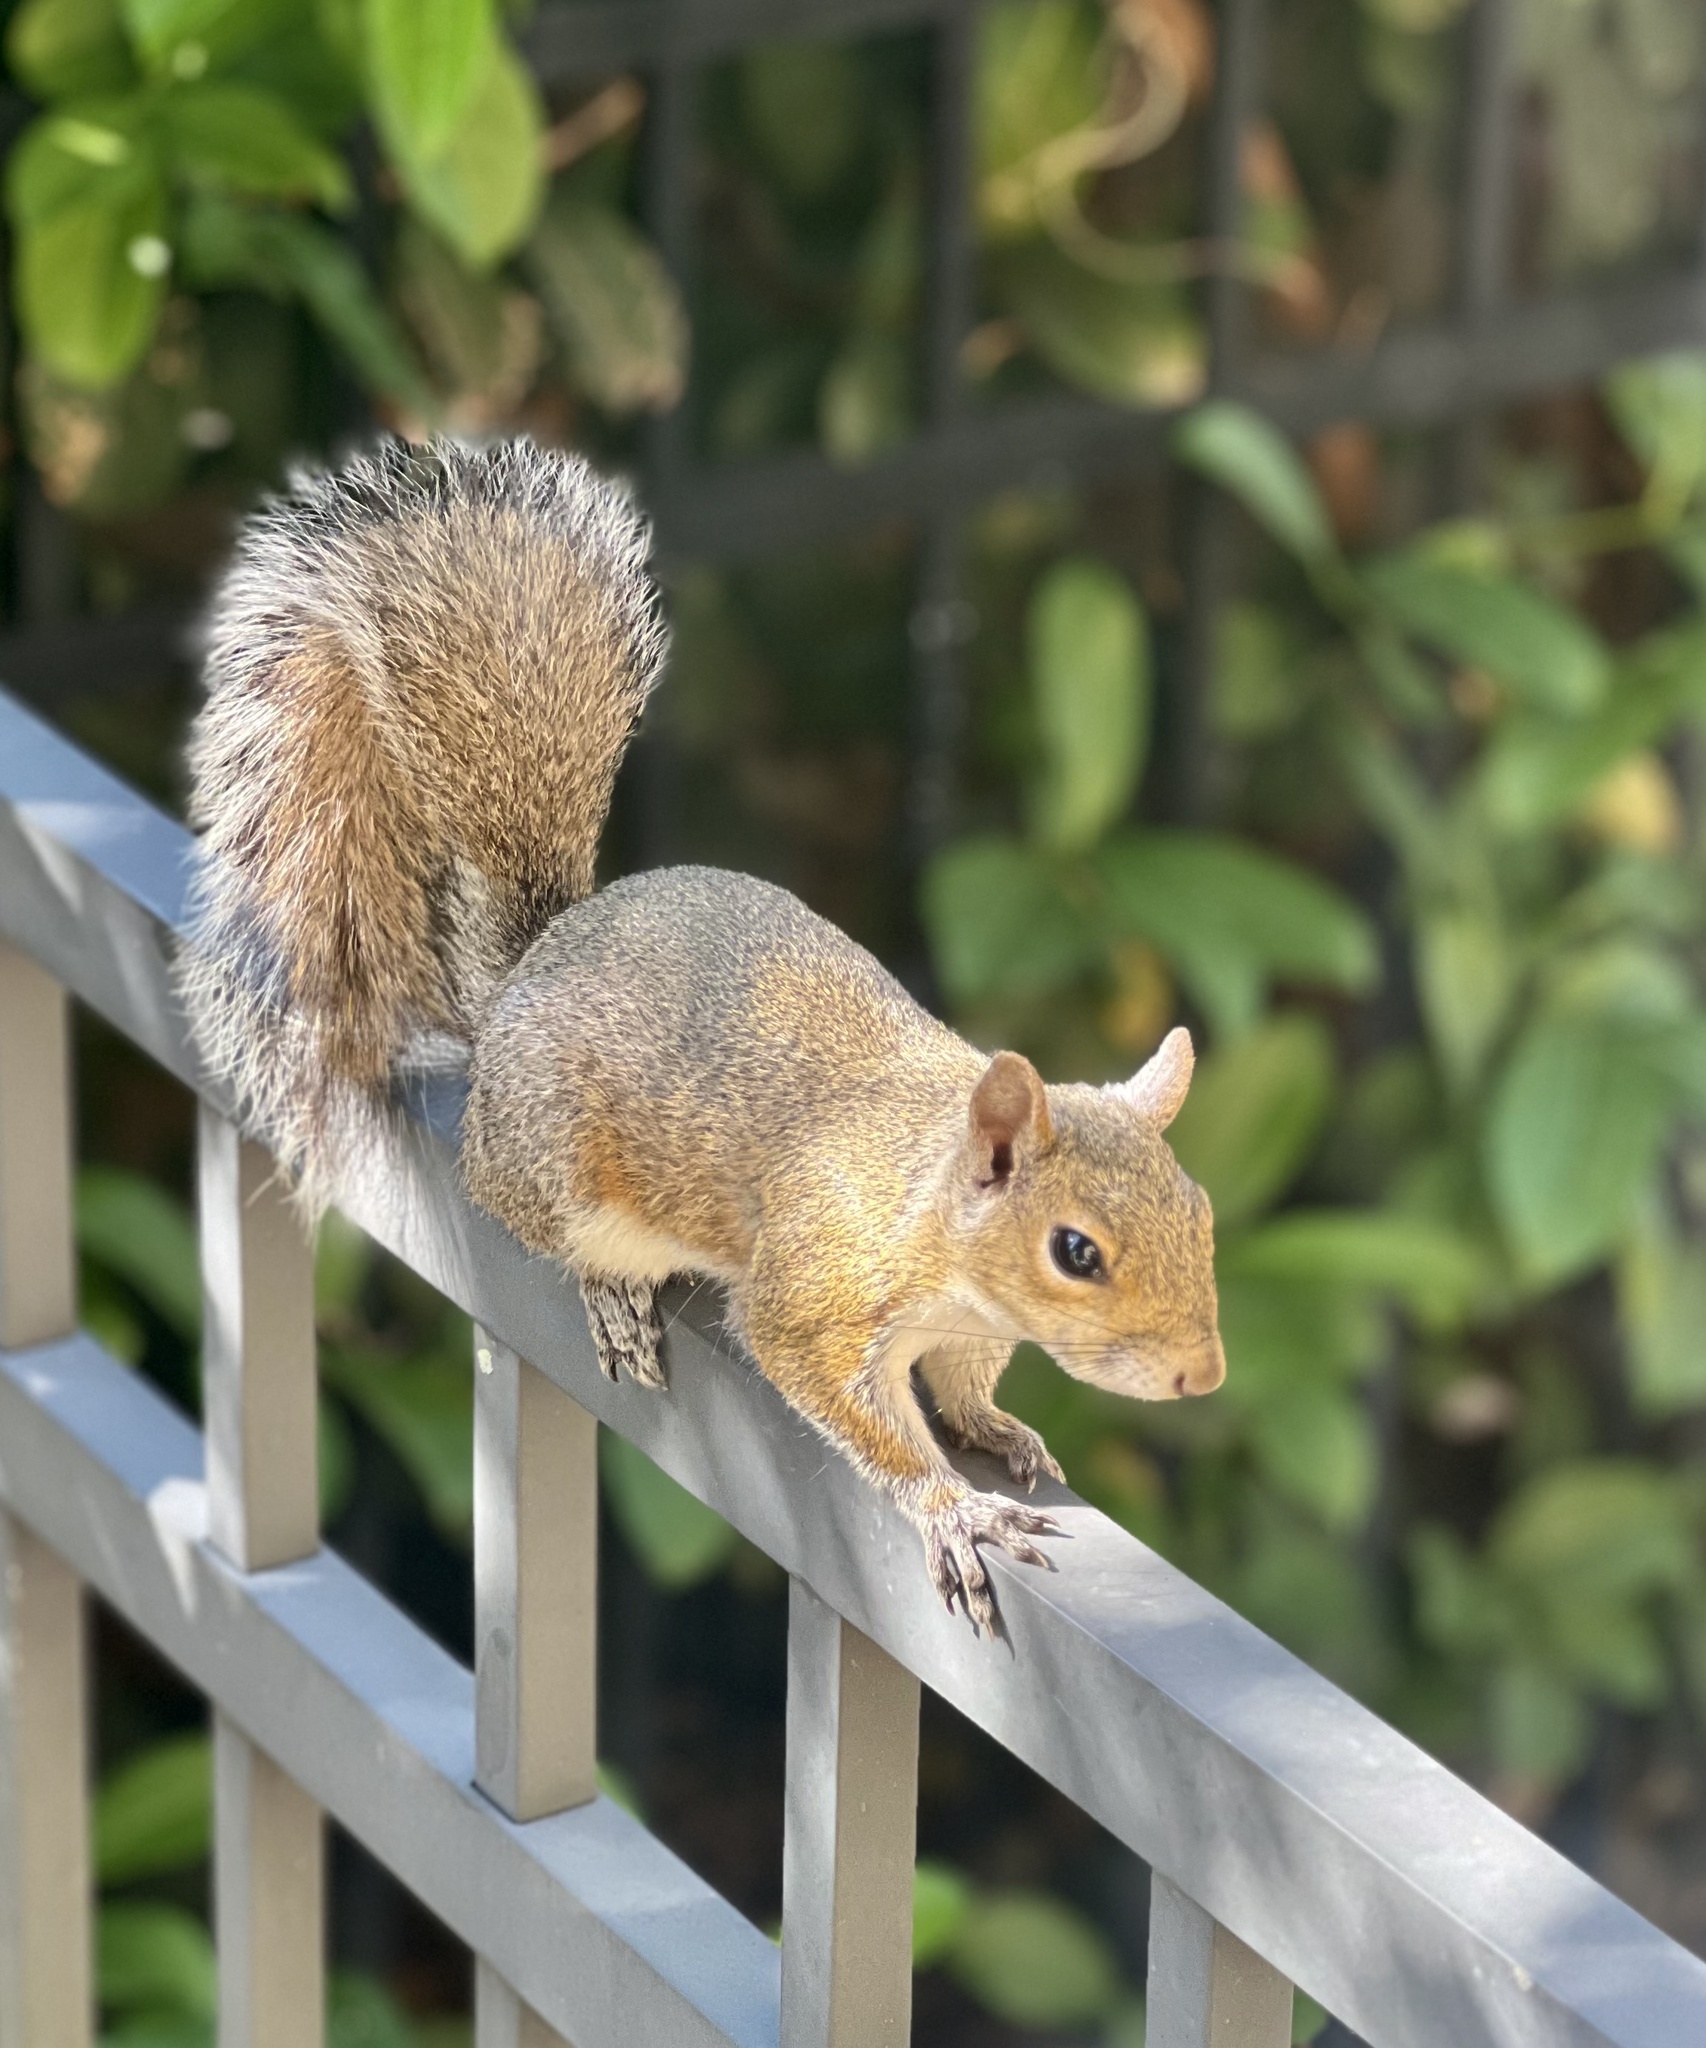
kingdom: Animalia
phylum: Chordata
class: Mammalia
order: Rodentia
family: Sciuridae
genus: Sciurus
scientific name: Sciurus carolinensis
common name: Eastern gray squirrel
